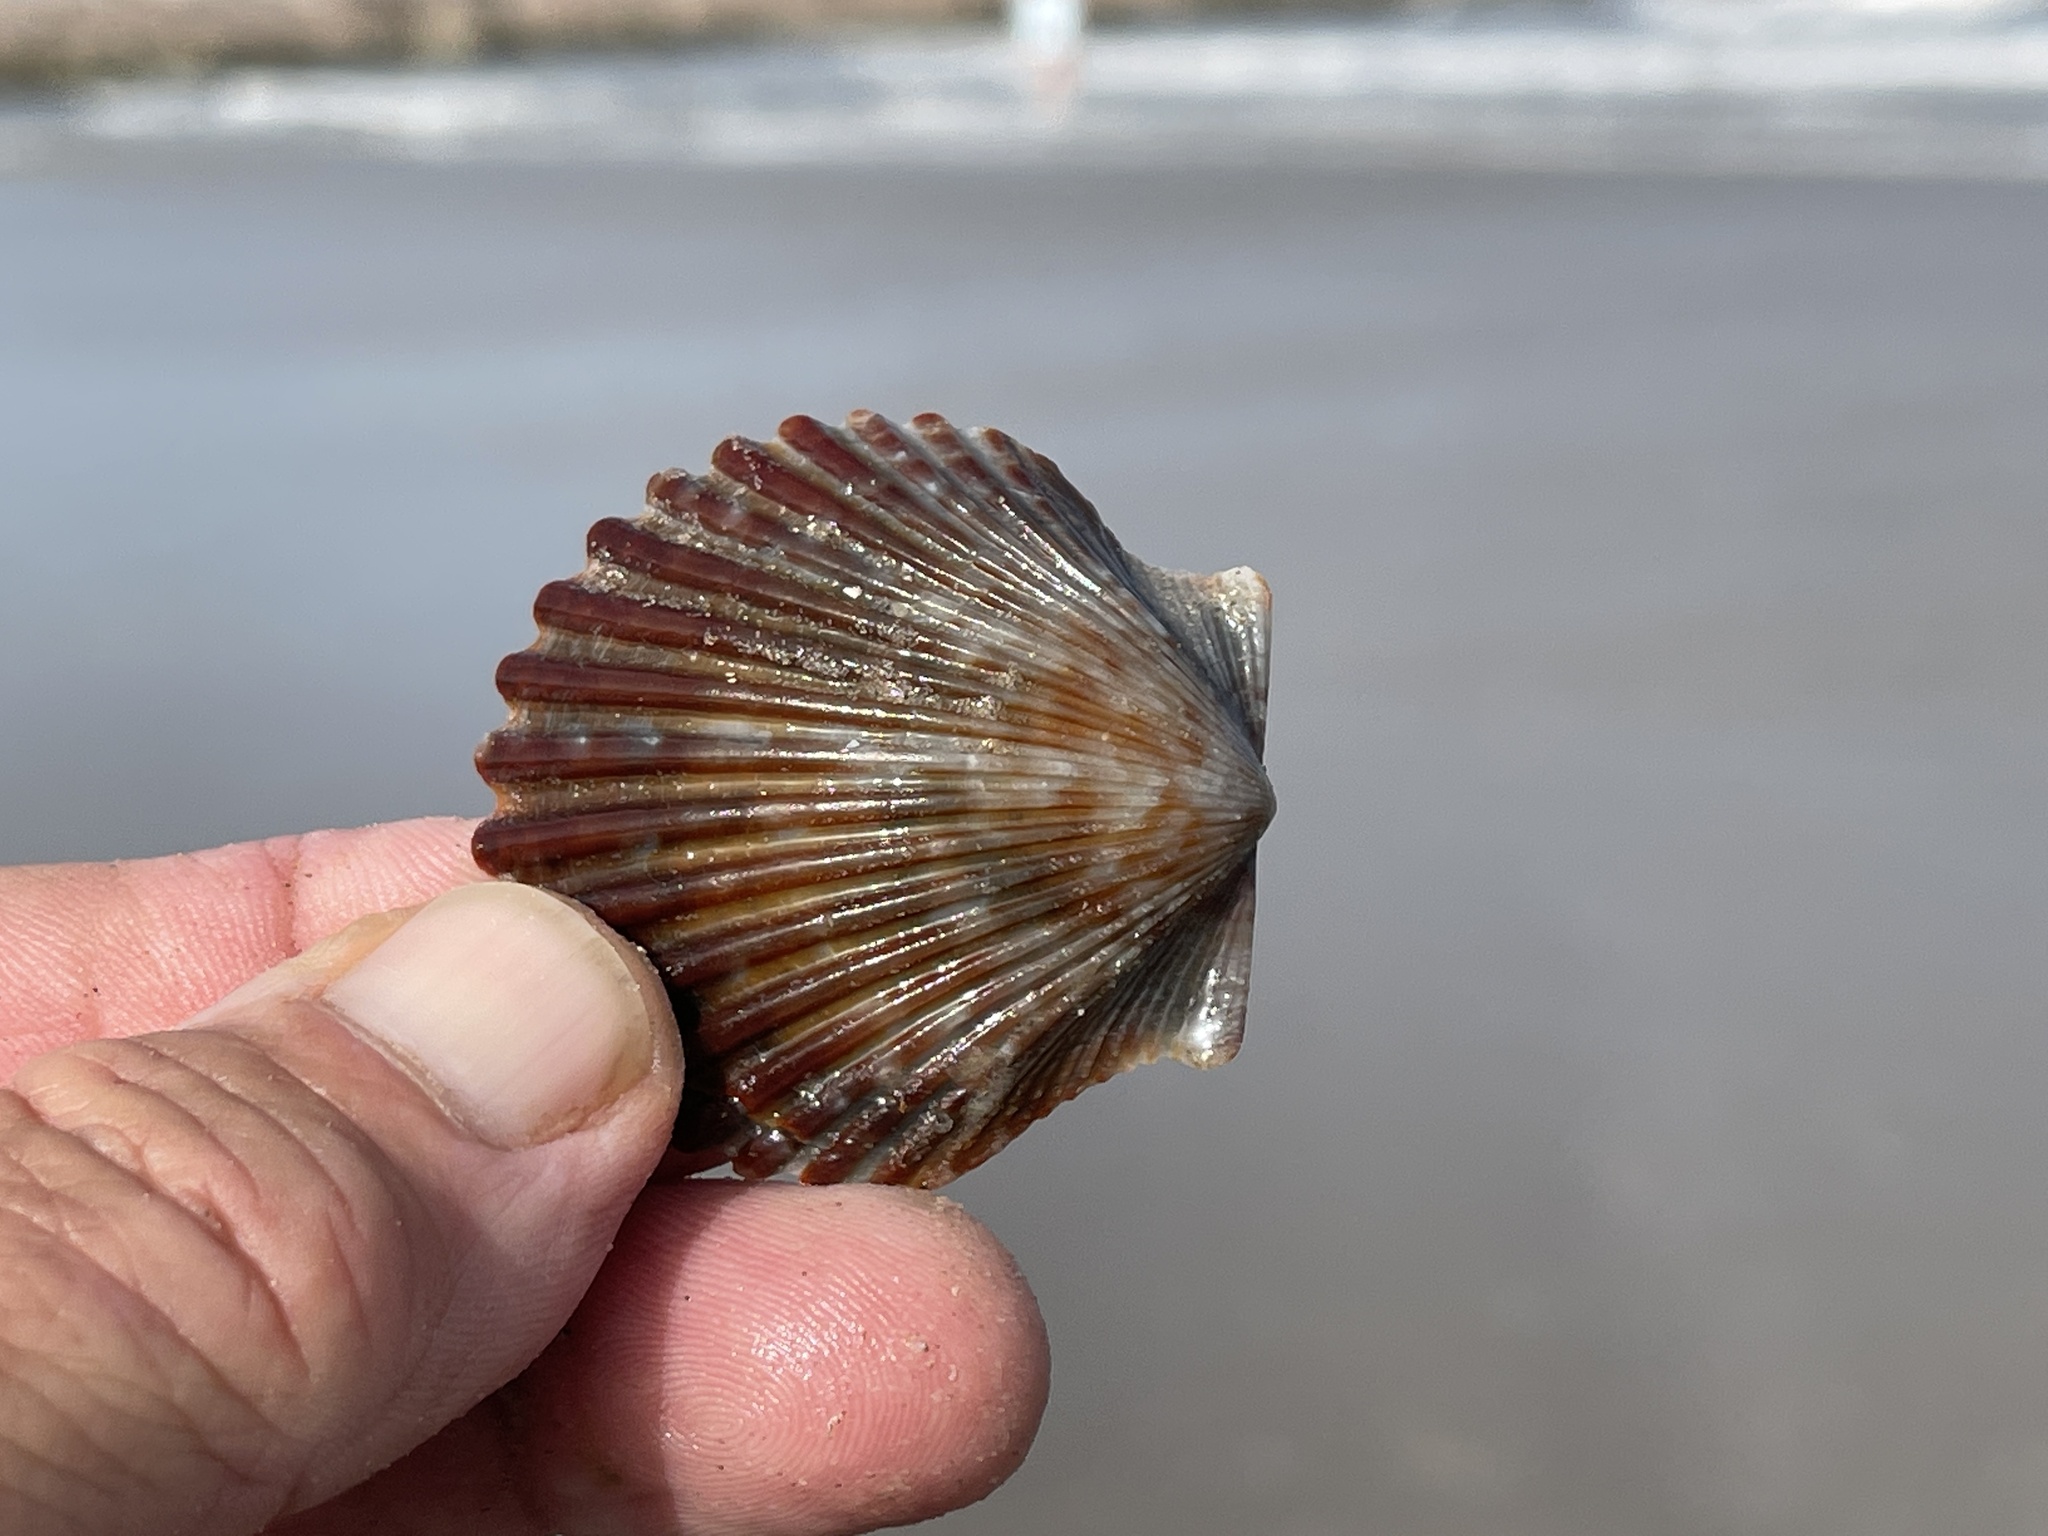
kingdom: Animalia
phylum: Mollusca
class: Bivalvia
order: Pectinida
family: Pectinidae
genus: Argopecten
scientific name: Argopecten irradians
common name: Atlantic bay scallop
